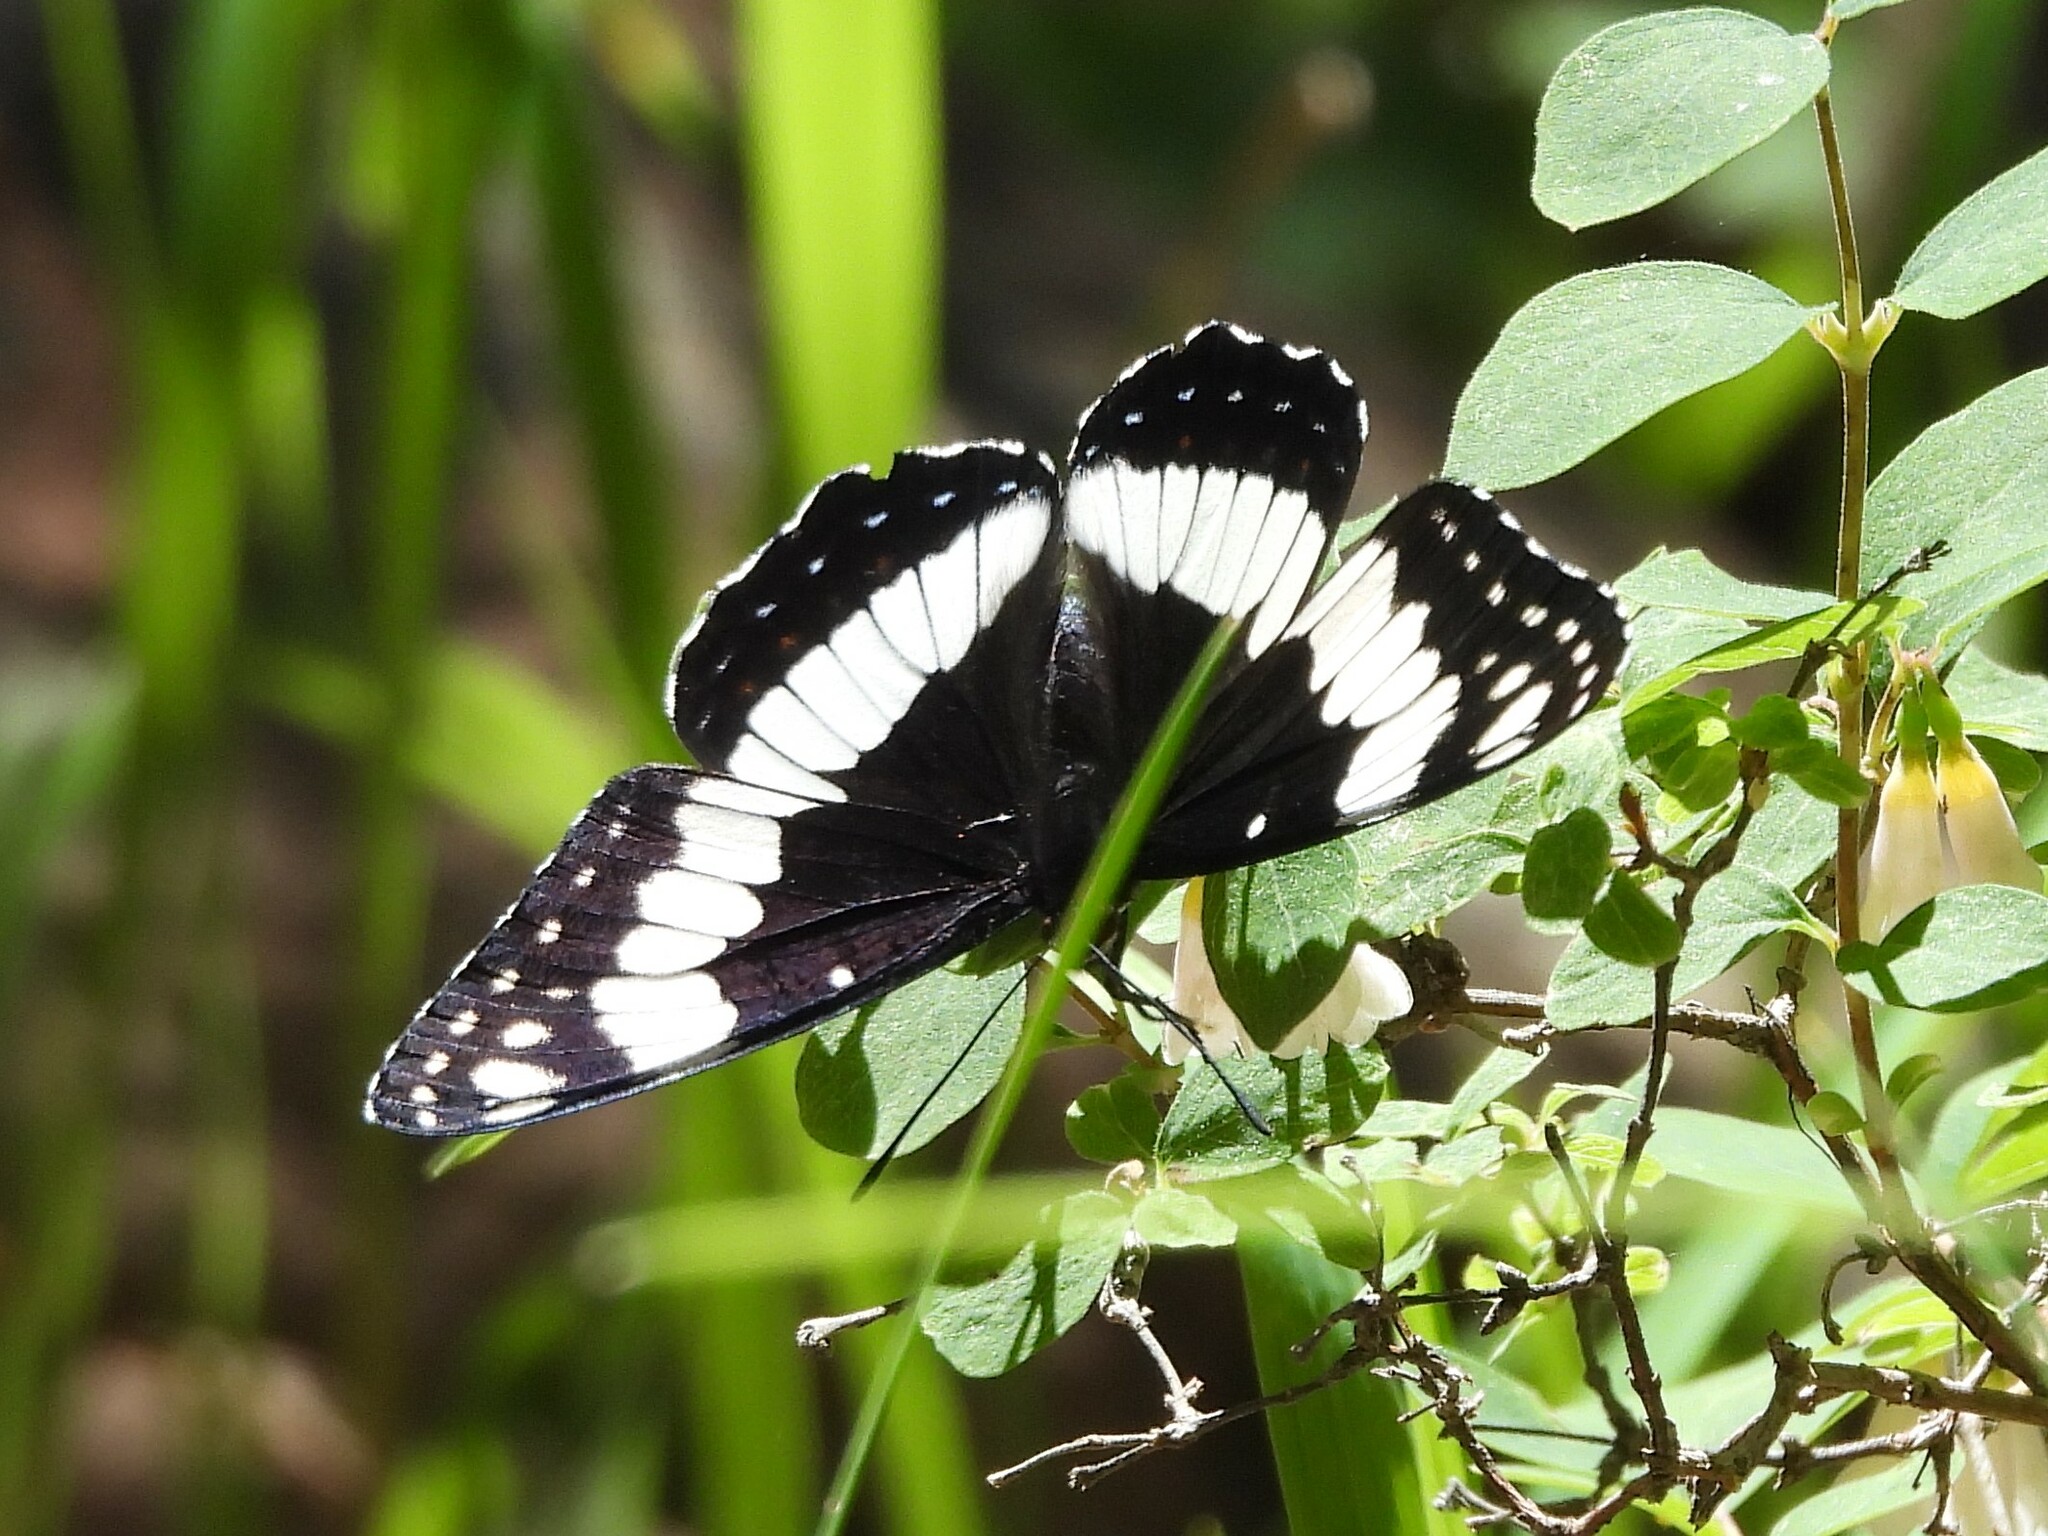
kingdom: Animalia
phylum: Arthropoda
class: Insecta
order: Lepidoptera
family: Nymphalidae
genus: Limenitis
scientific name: Limenitis weidemeyerii
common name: Weidemeyer's admiral
